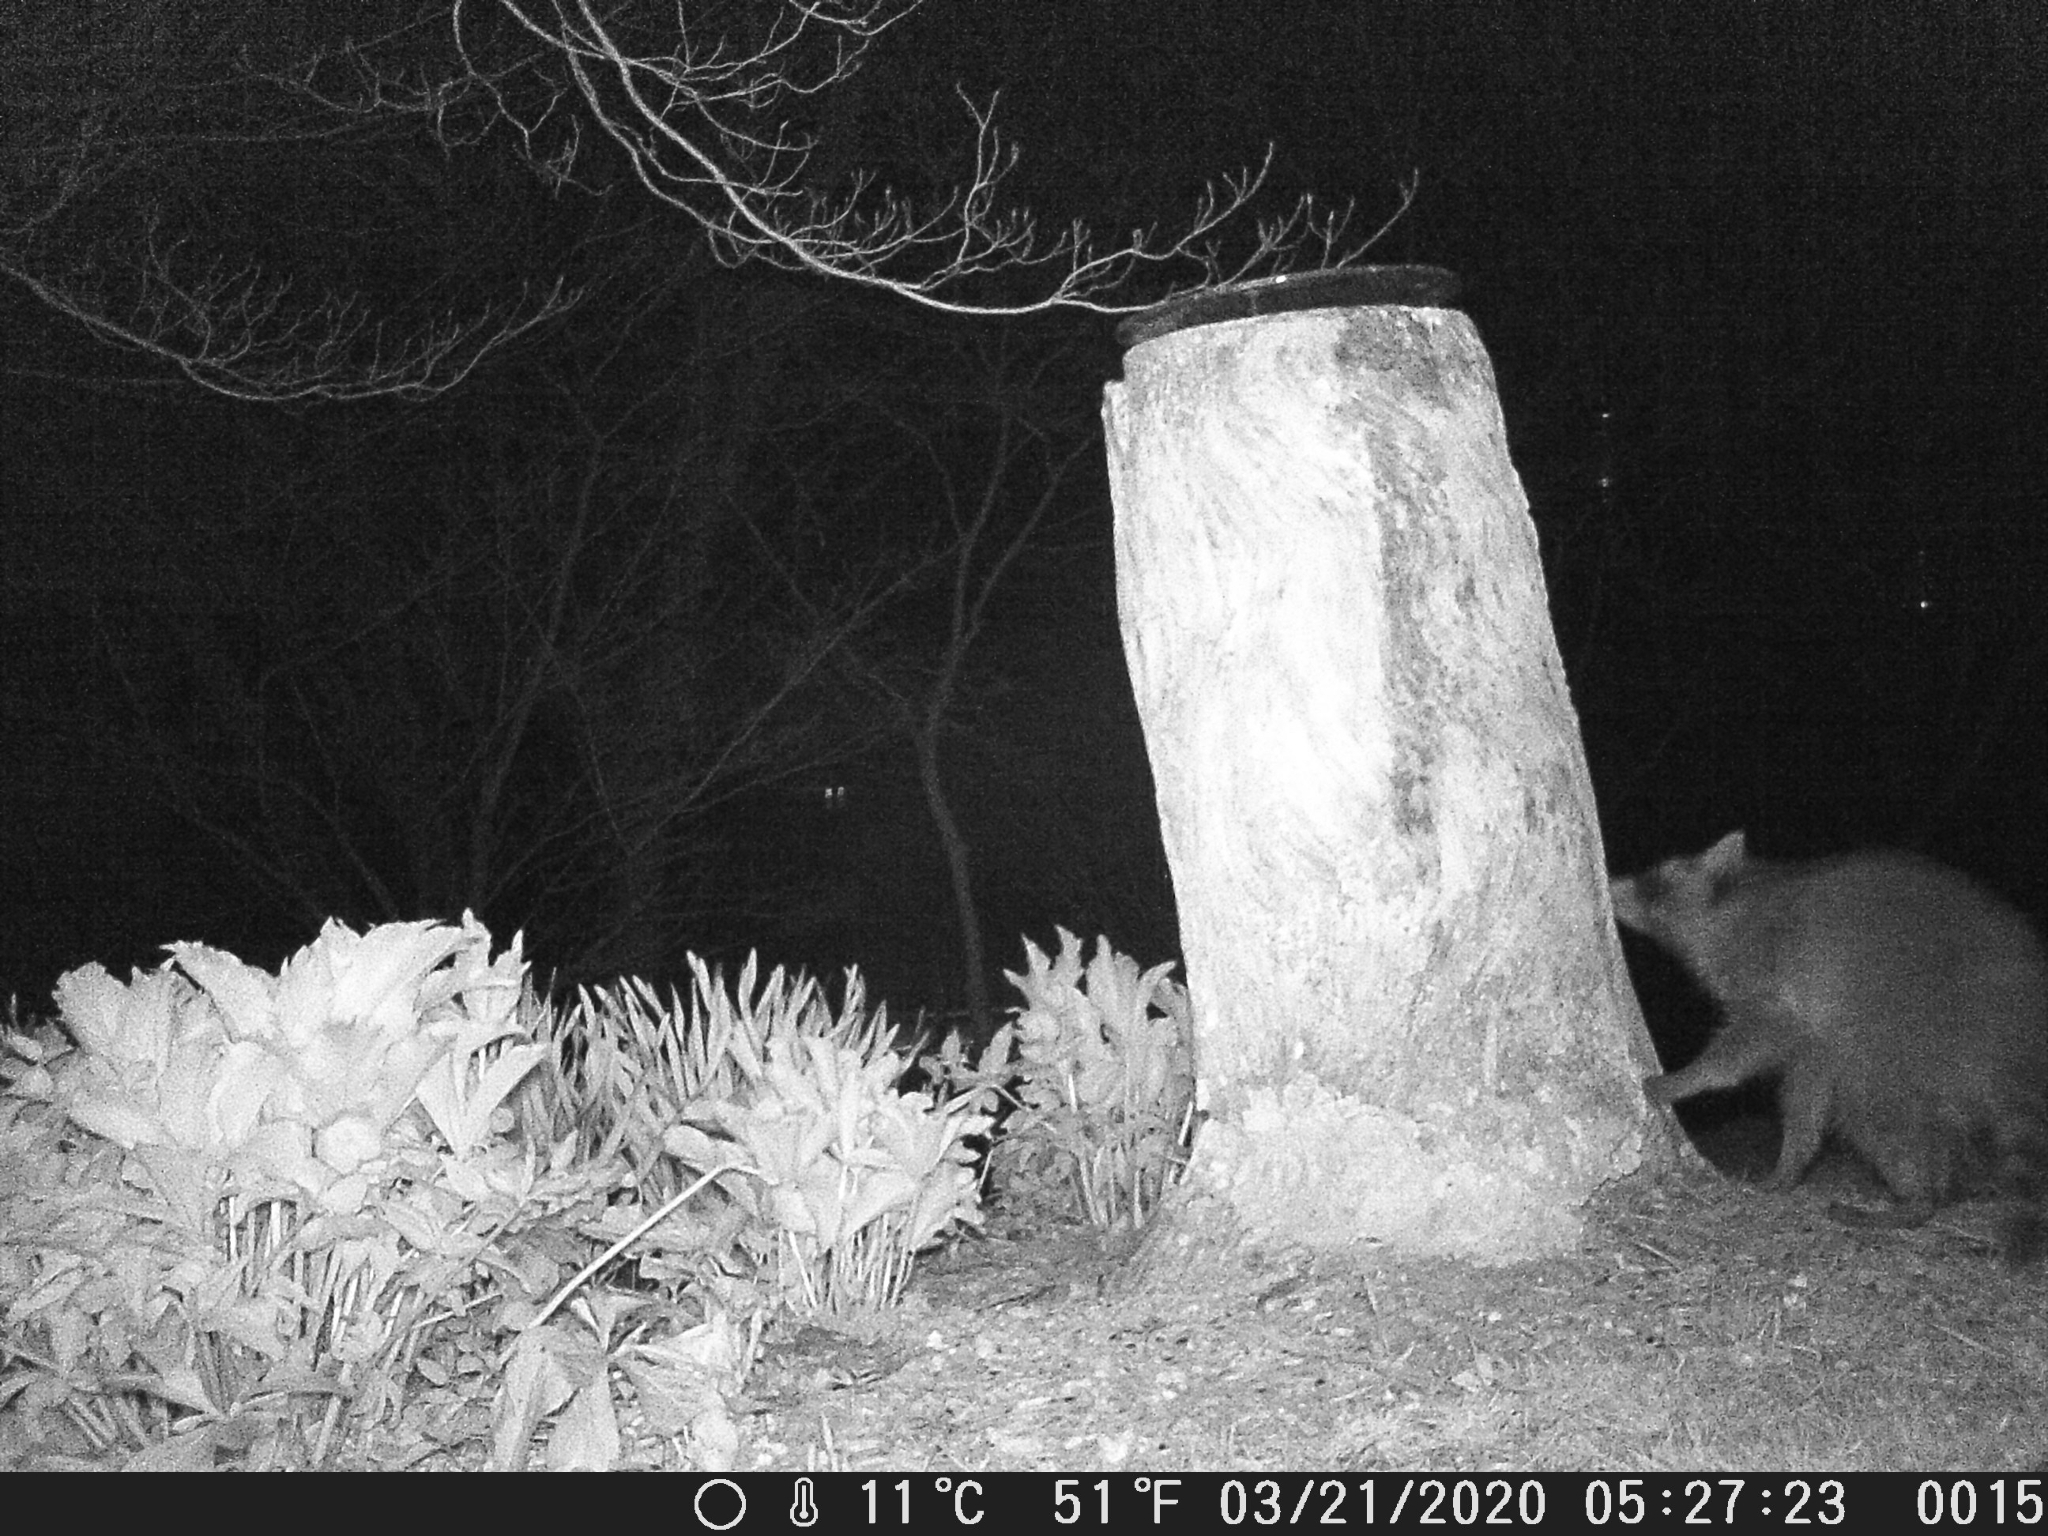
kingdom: Animalia
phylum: Chordata
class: Mammalia
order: Carnivora
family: Procyonidae
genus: Procyon
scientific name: Procyon lotor
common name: Raccoon
